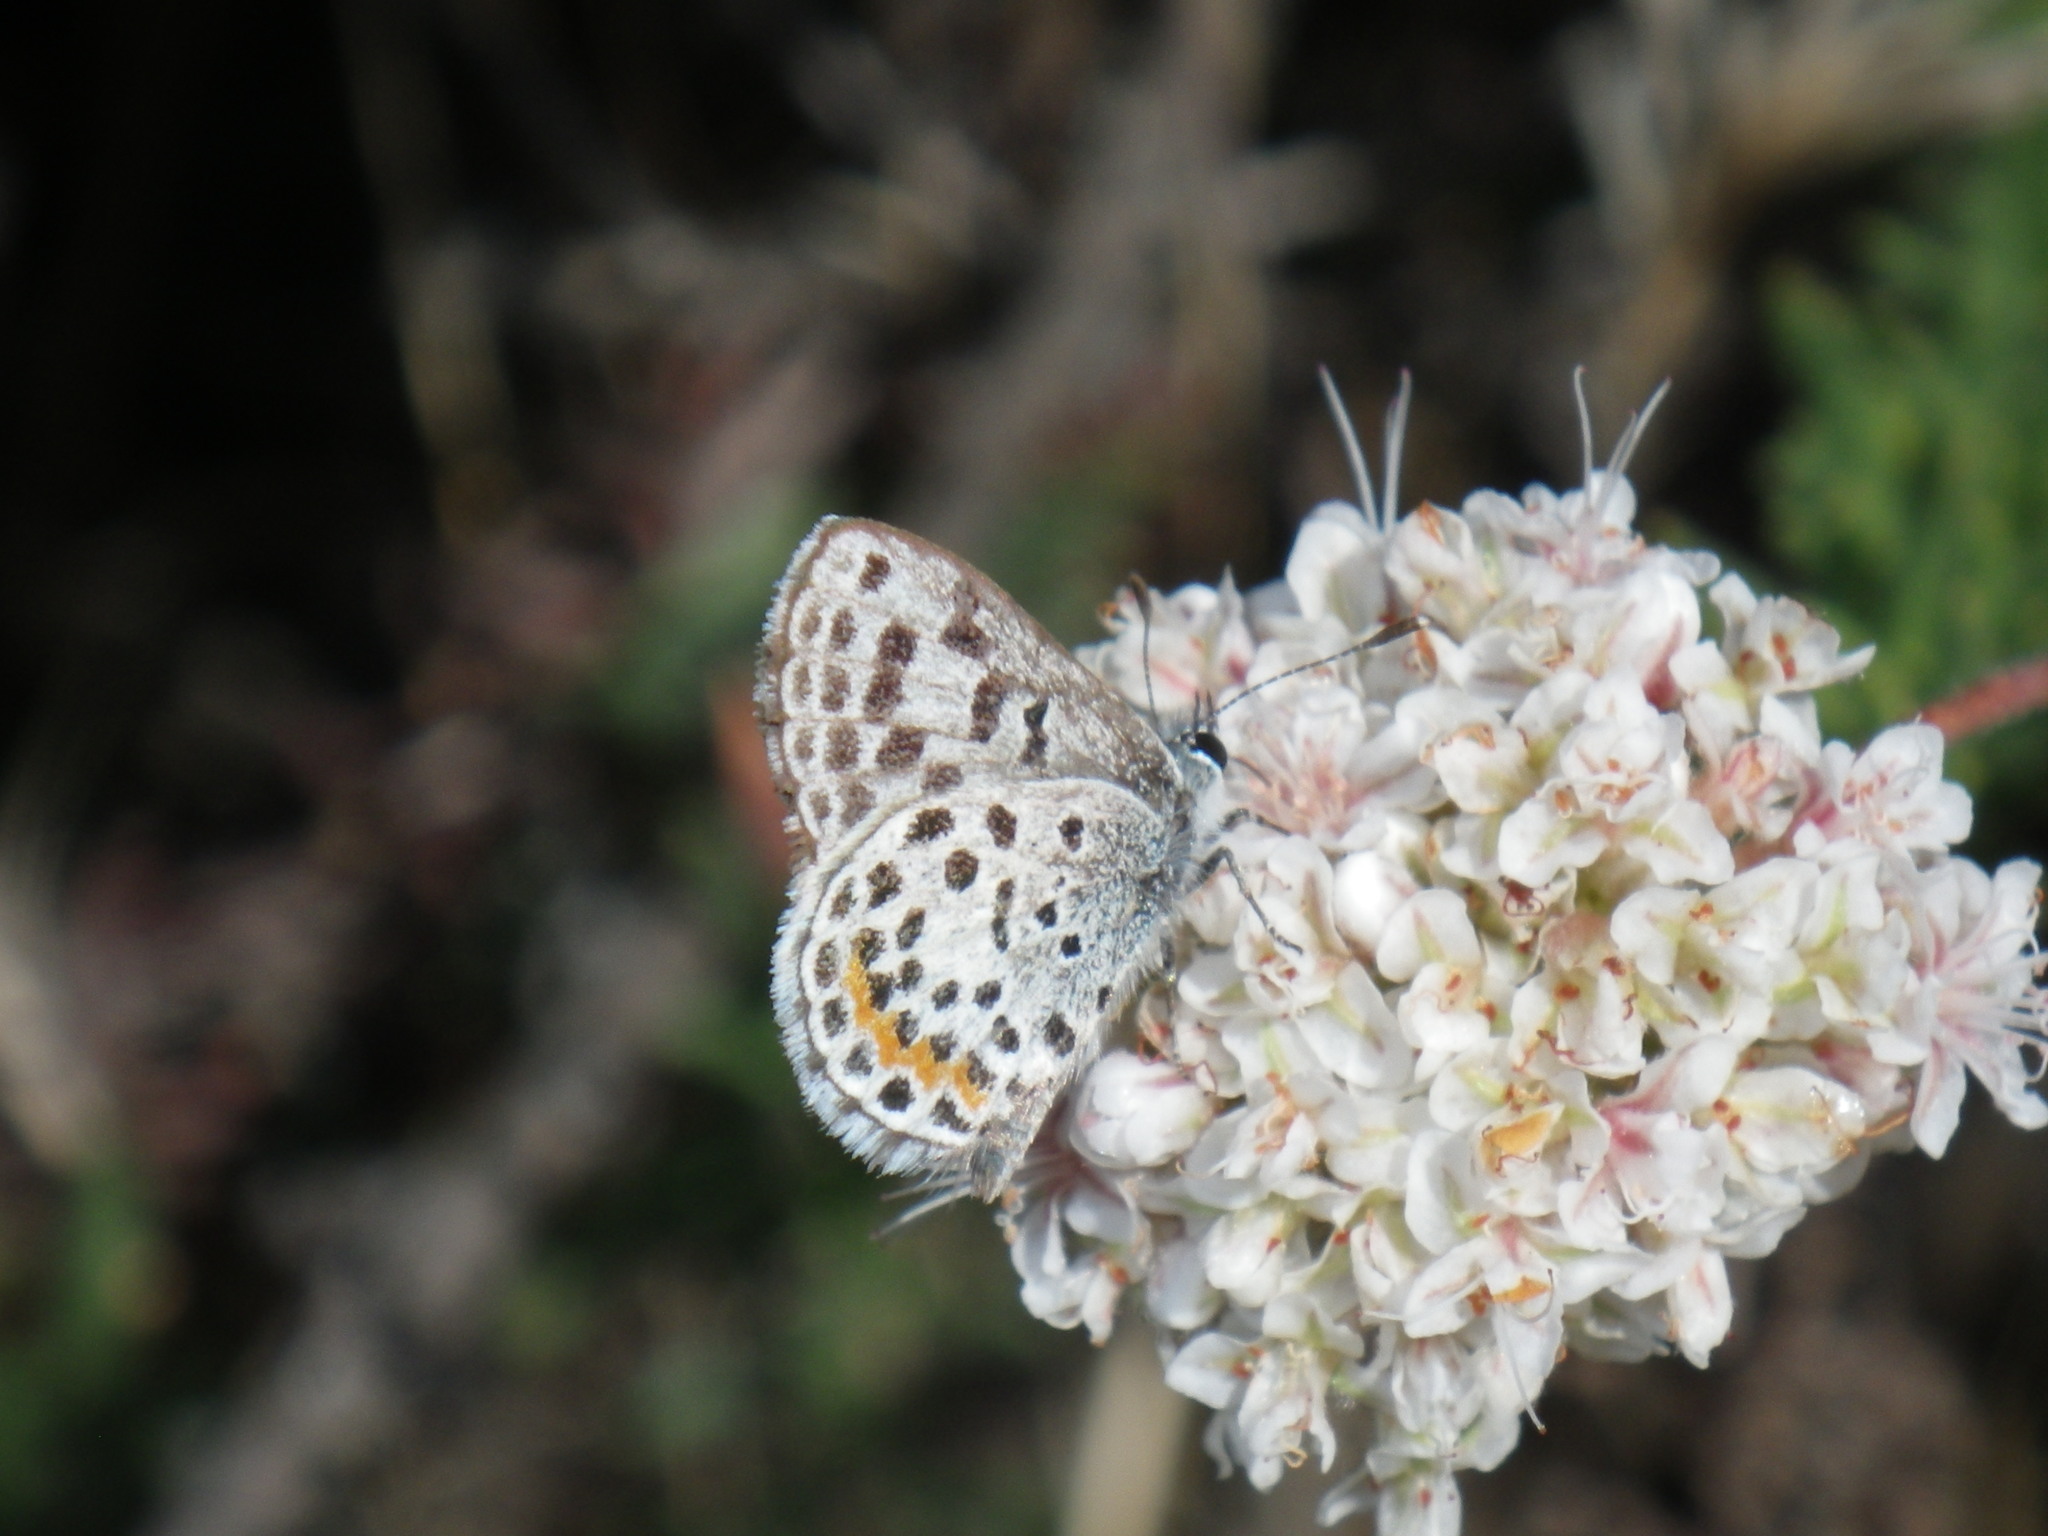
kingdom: Animalia
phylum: Arthropoda
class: Insecta
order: Lepidoptera
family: Lycaenidae
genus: Philotes
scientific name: Philotes bernardino
